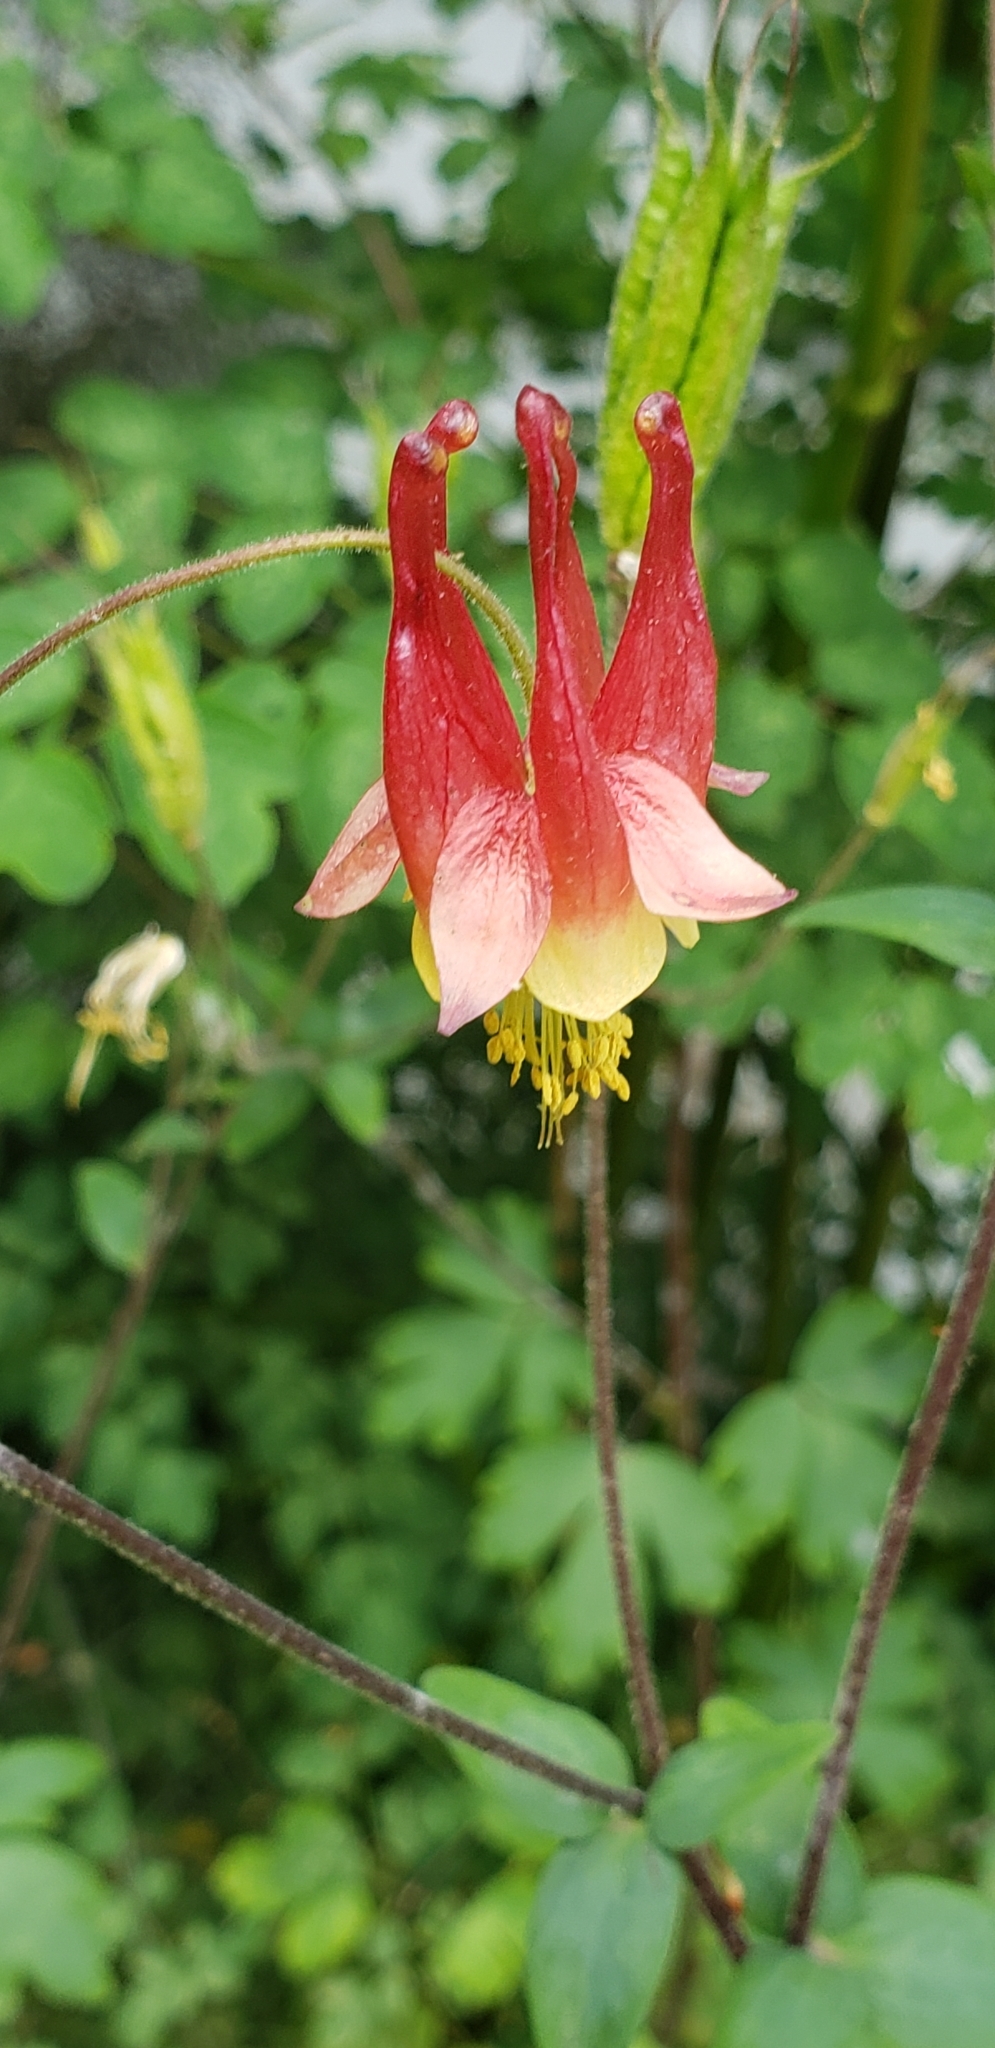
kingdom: Plantae
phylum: Tracheophyta
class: Magnoliopsida
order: Ranunculales
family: Ranunculaceae
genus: Aquilegia
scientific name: Aquilegia canadensis
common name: American columbine
